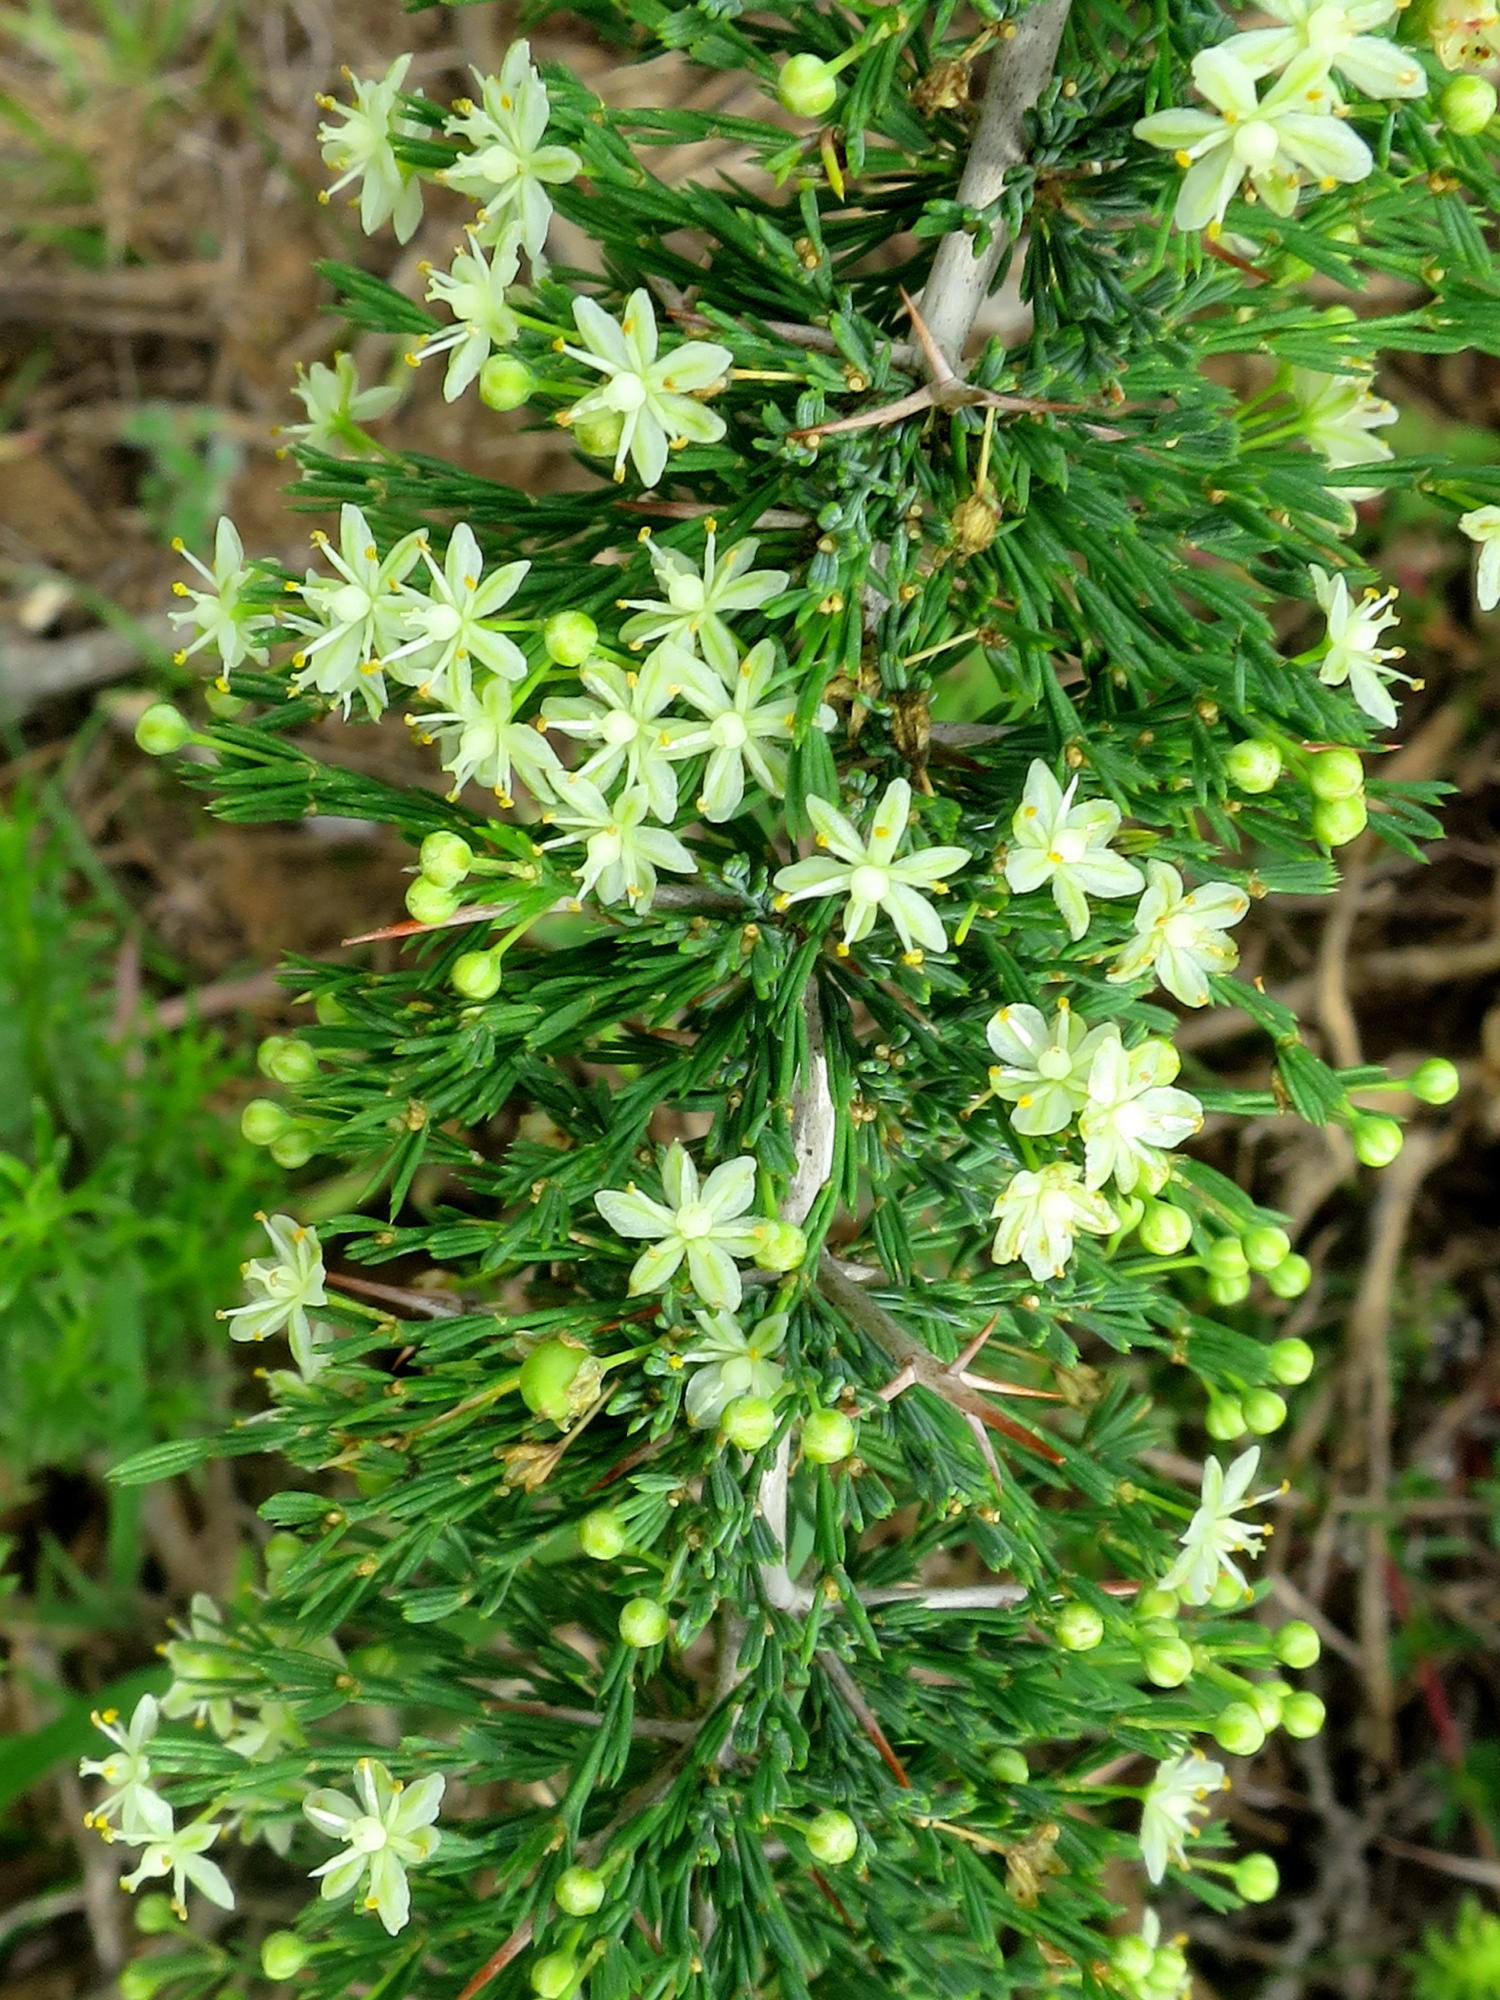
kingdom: Plantae
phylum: Tracheophyta
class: Liliopsida
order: Asparagales
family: Asparagaceae
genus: Asparagus
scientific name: Asparagus suaveolens
